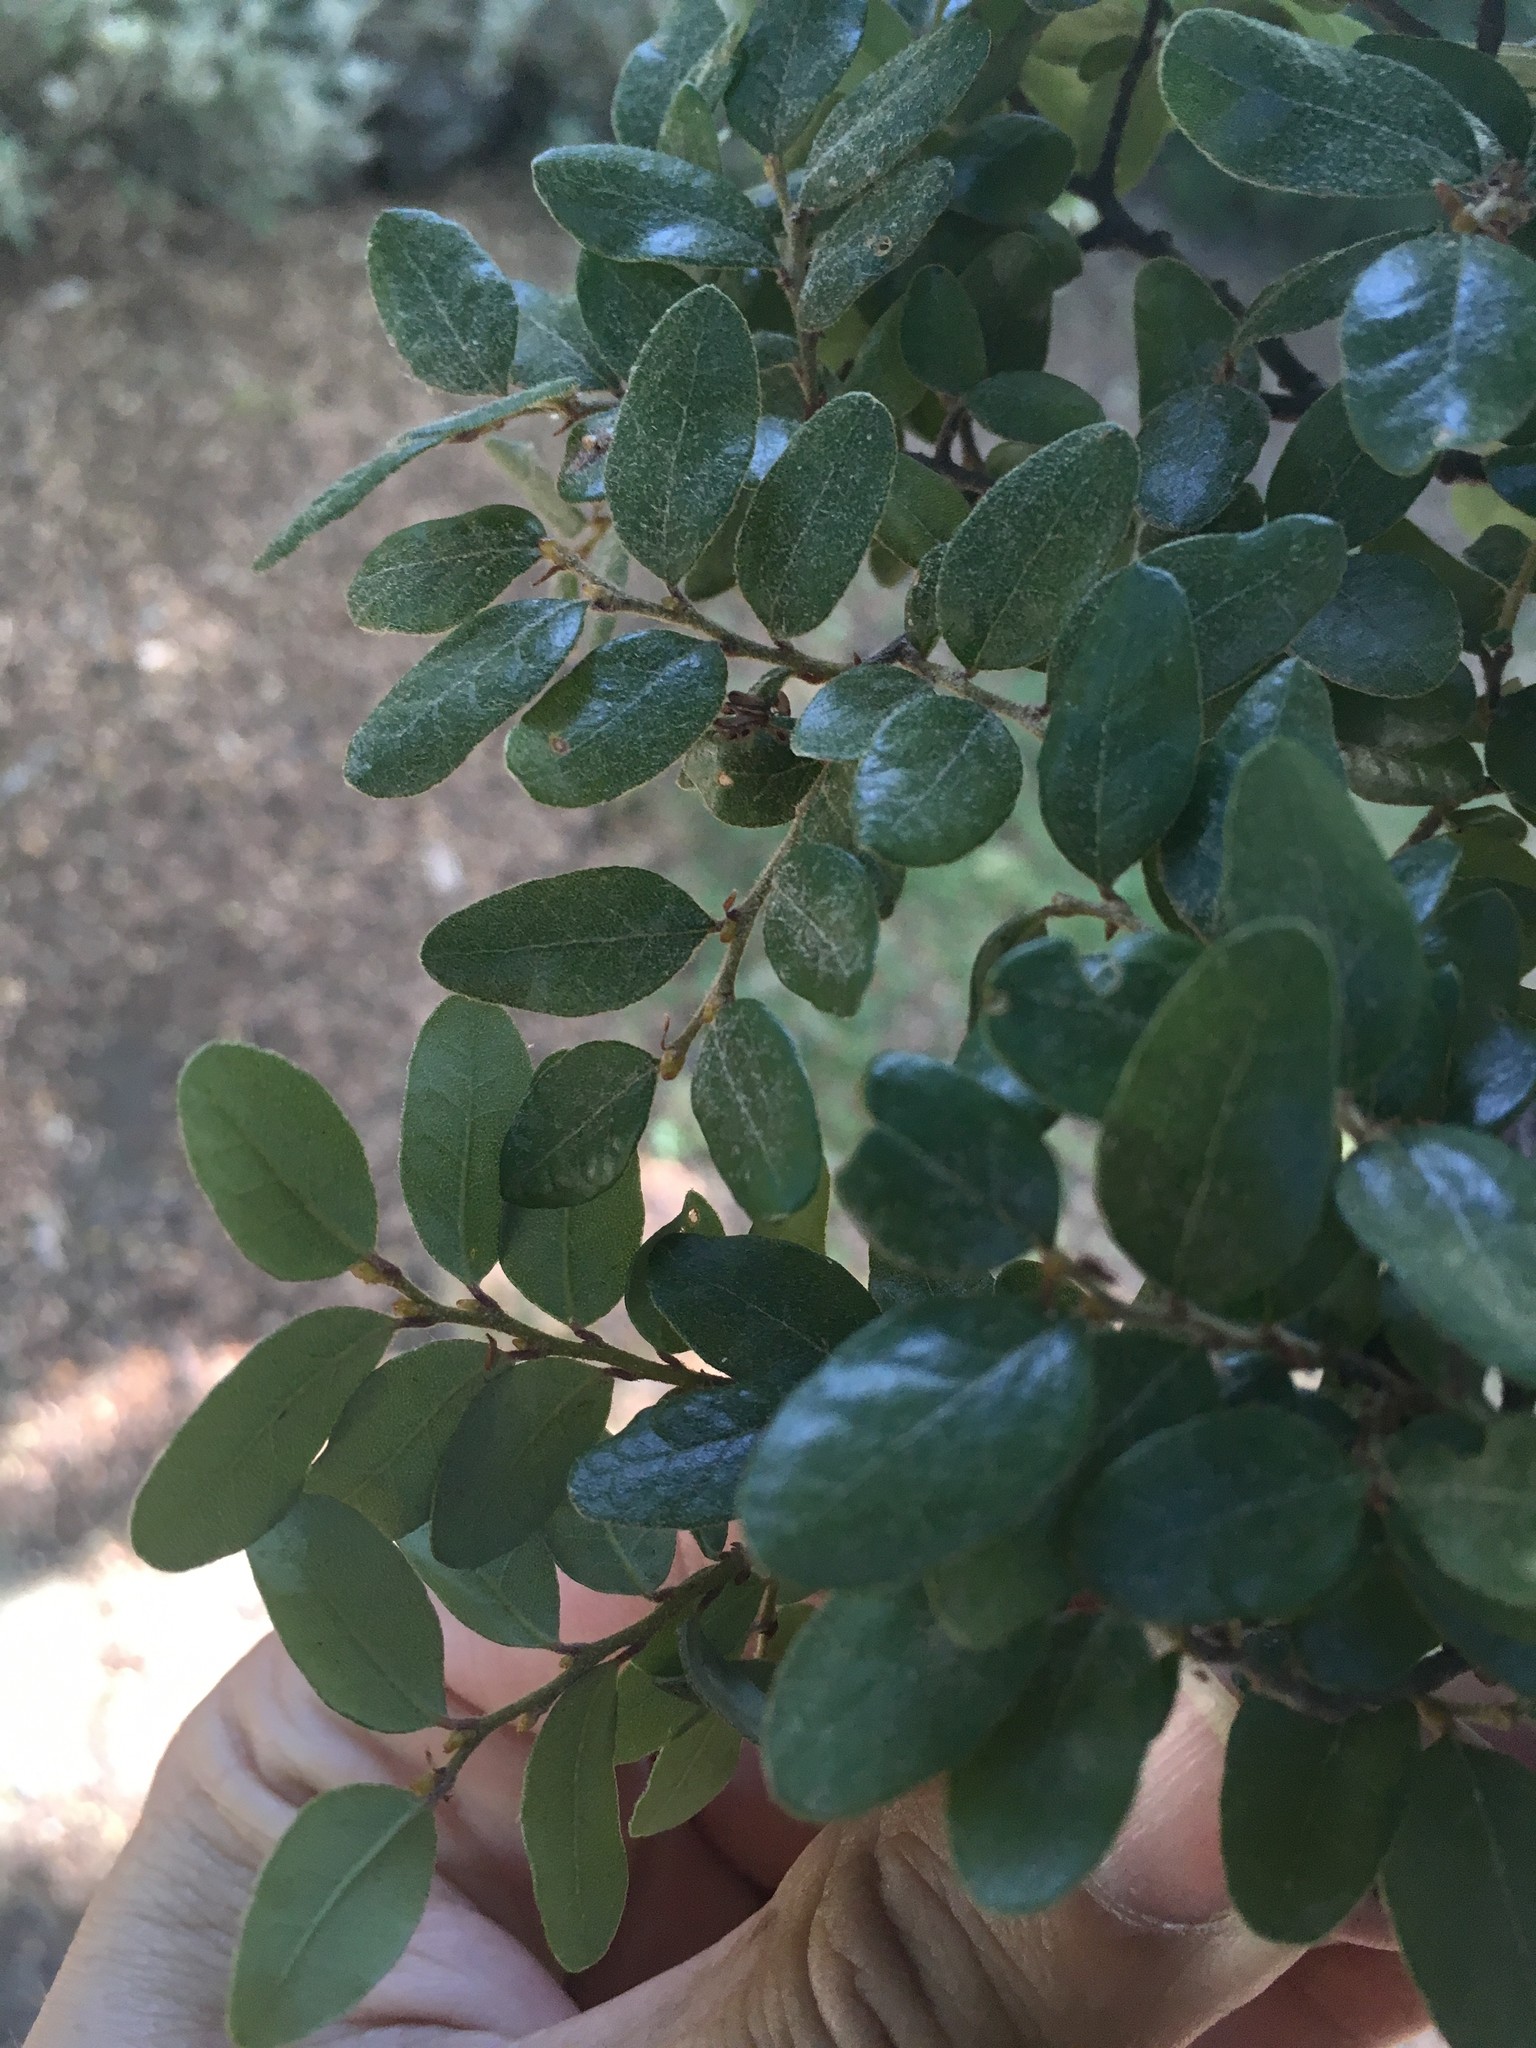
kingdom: Plantae
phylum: Tracheophyta
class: Magnoliopsida
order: Fagales
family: Nothofagaceae
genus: Nothofagus
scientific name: Nothofagus solandri
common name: Black beech
